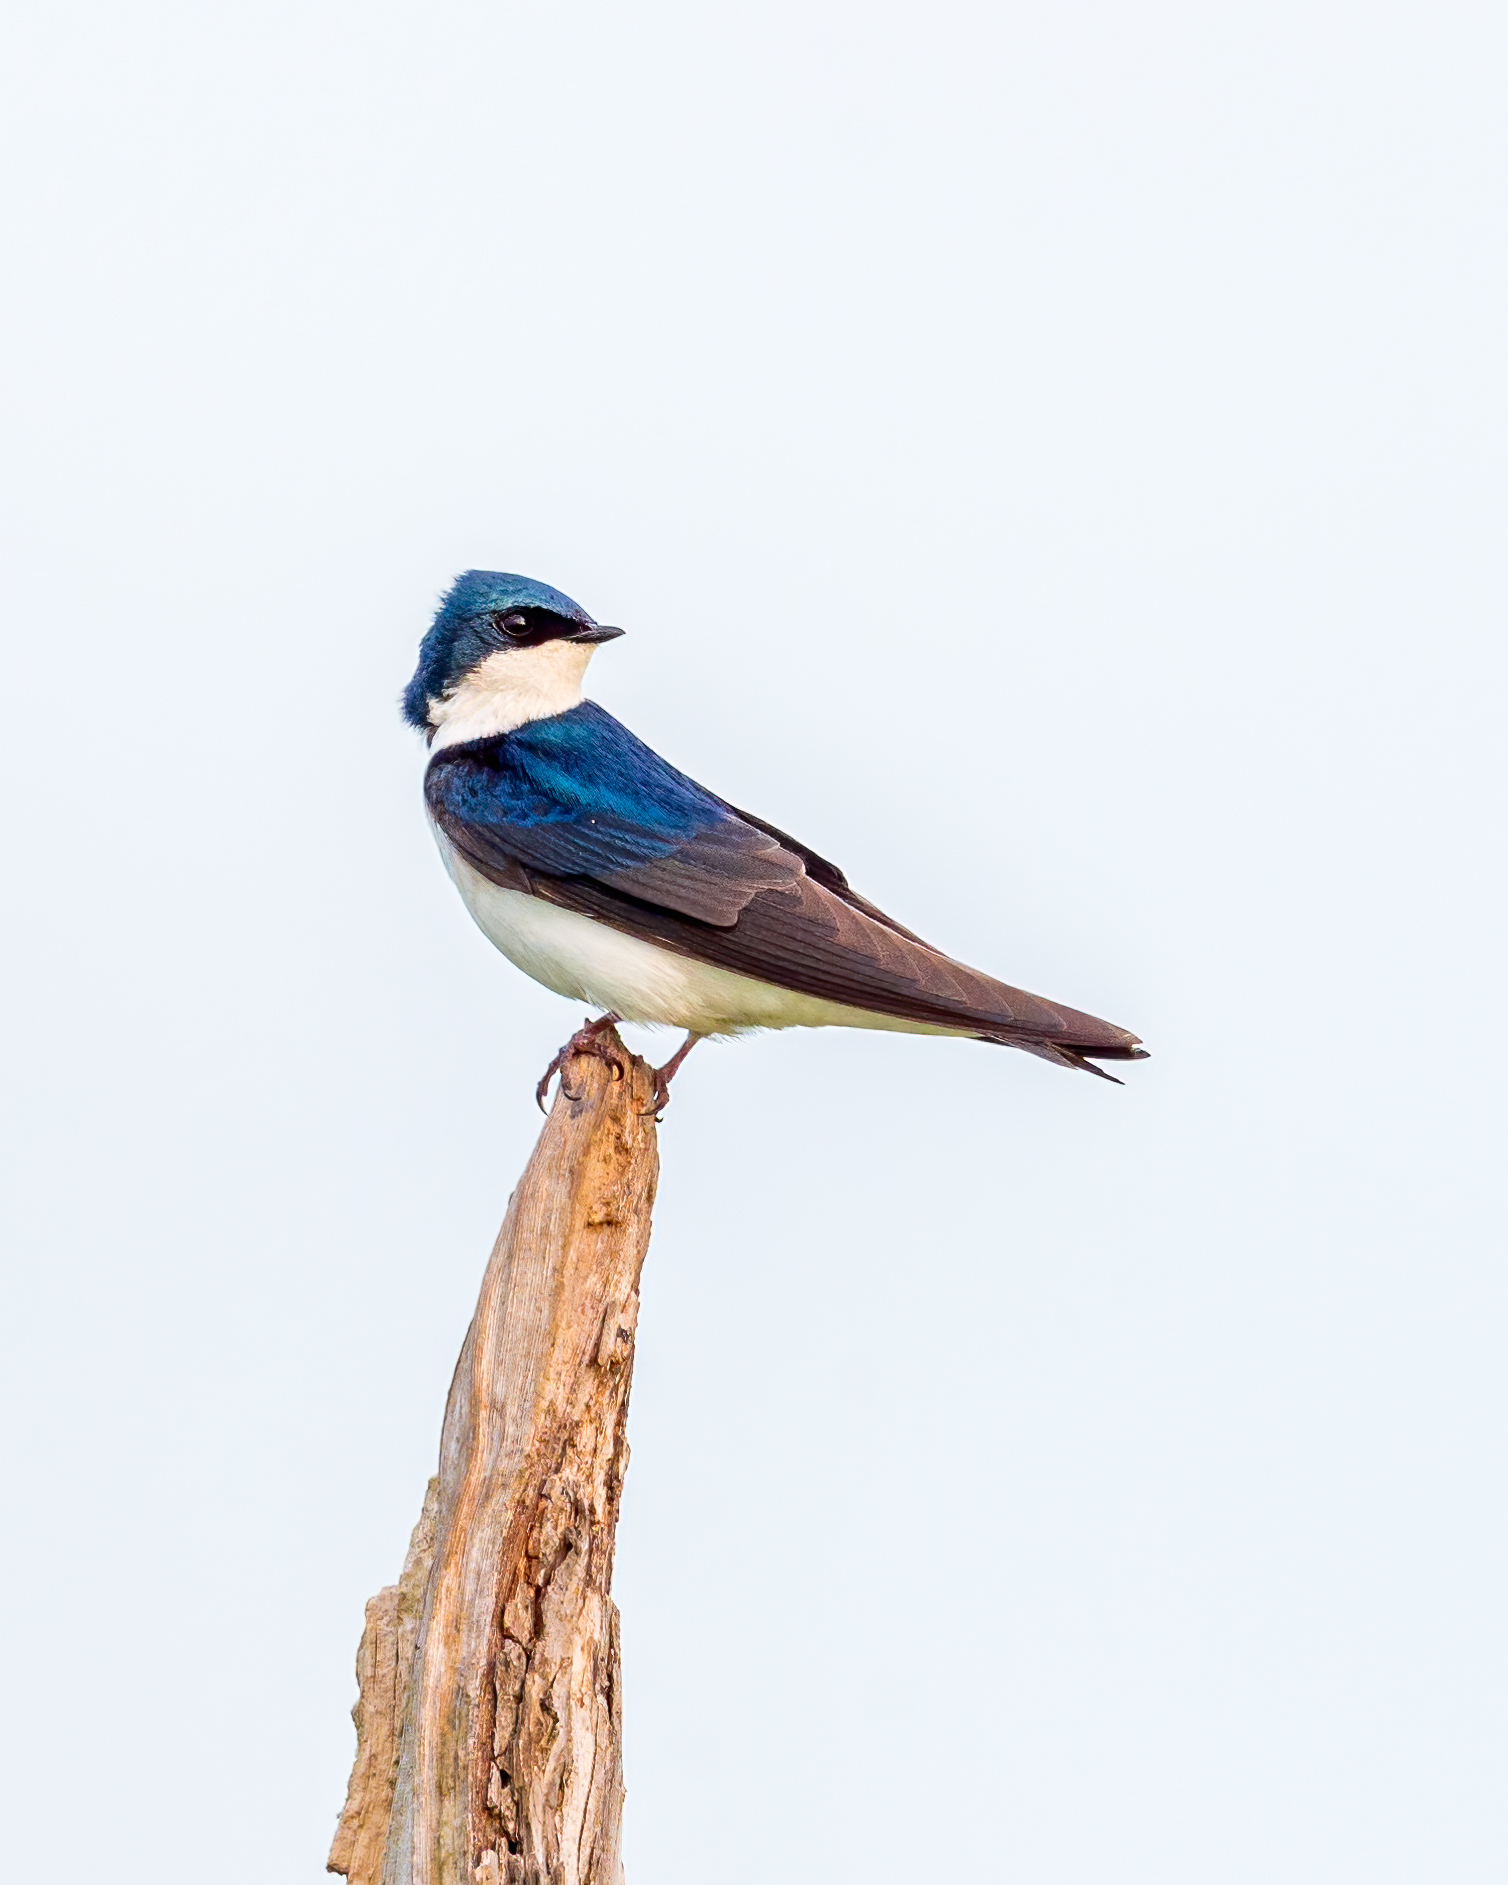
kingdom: Animalia
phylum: Chordata
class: Aves
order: Passeriformes
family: Hirundinidae
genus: Tachycineta
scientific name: Tachycineta bicolor
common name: Tree swallow
